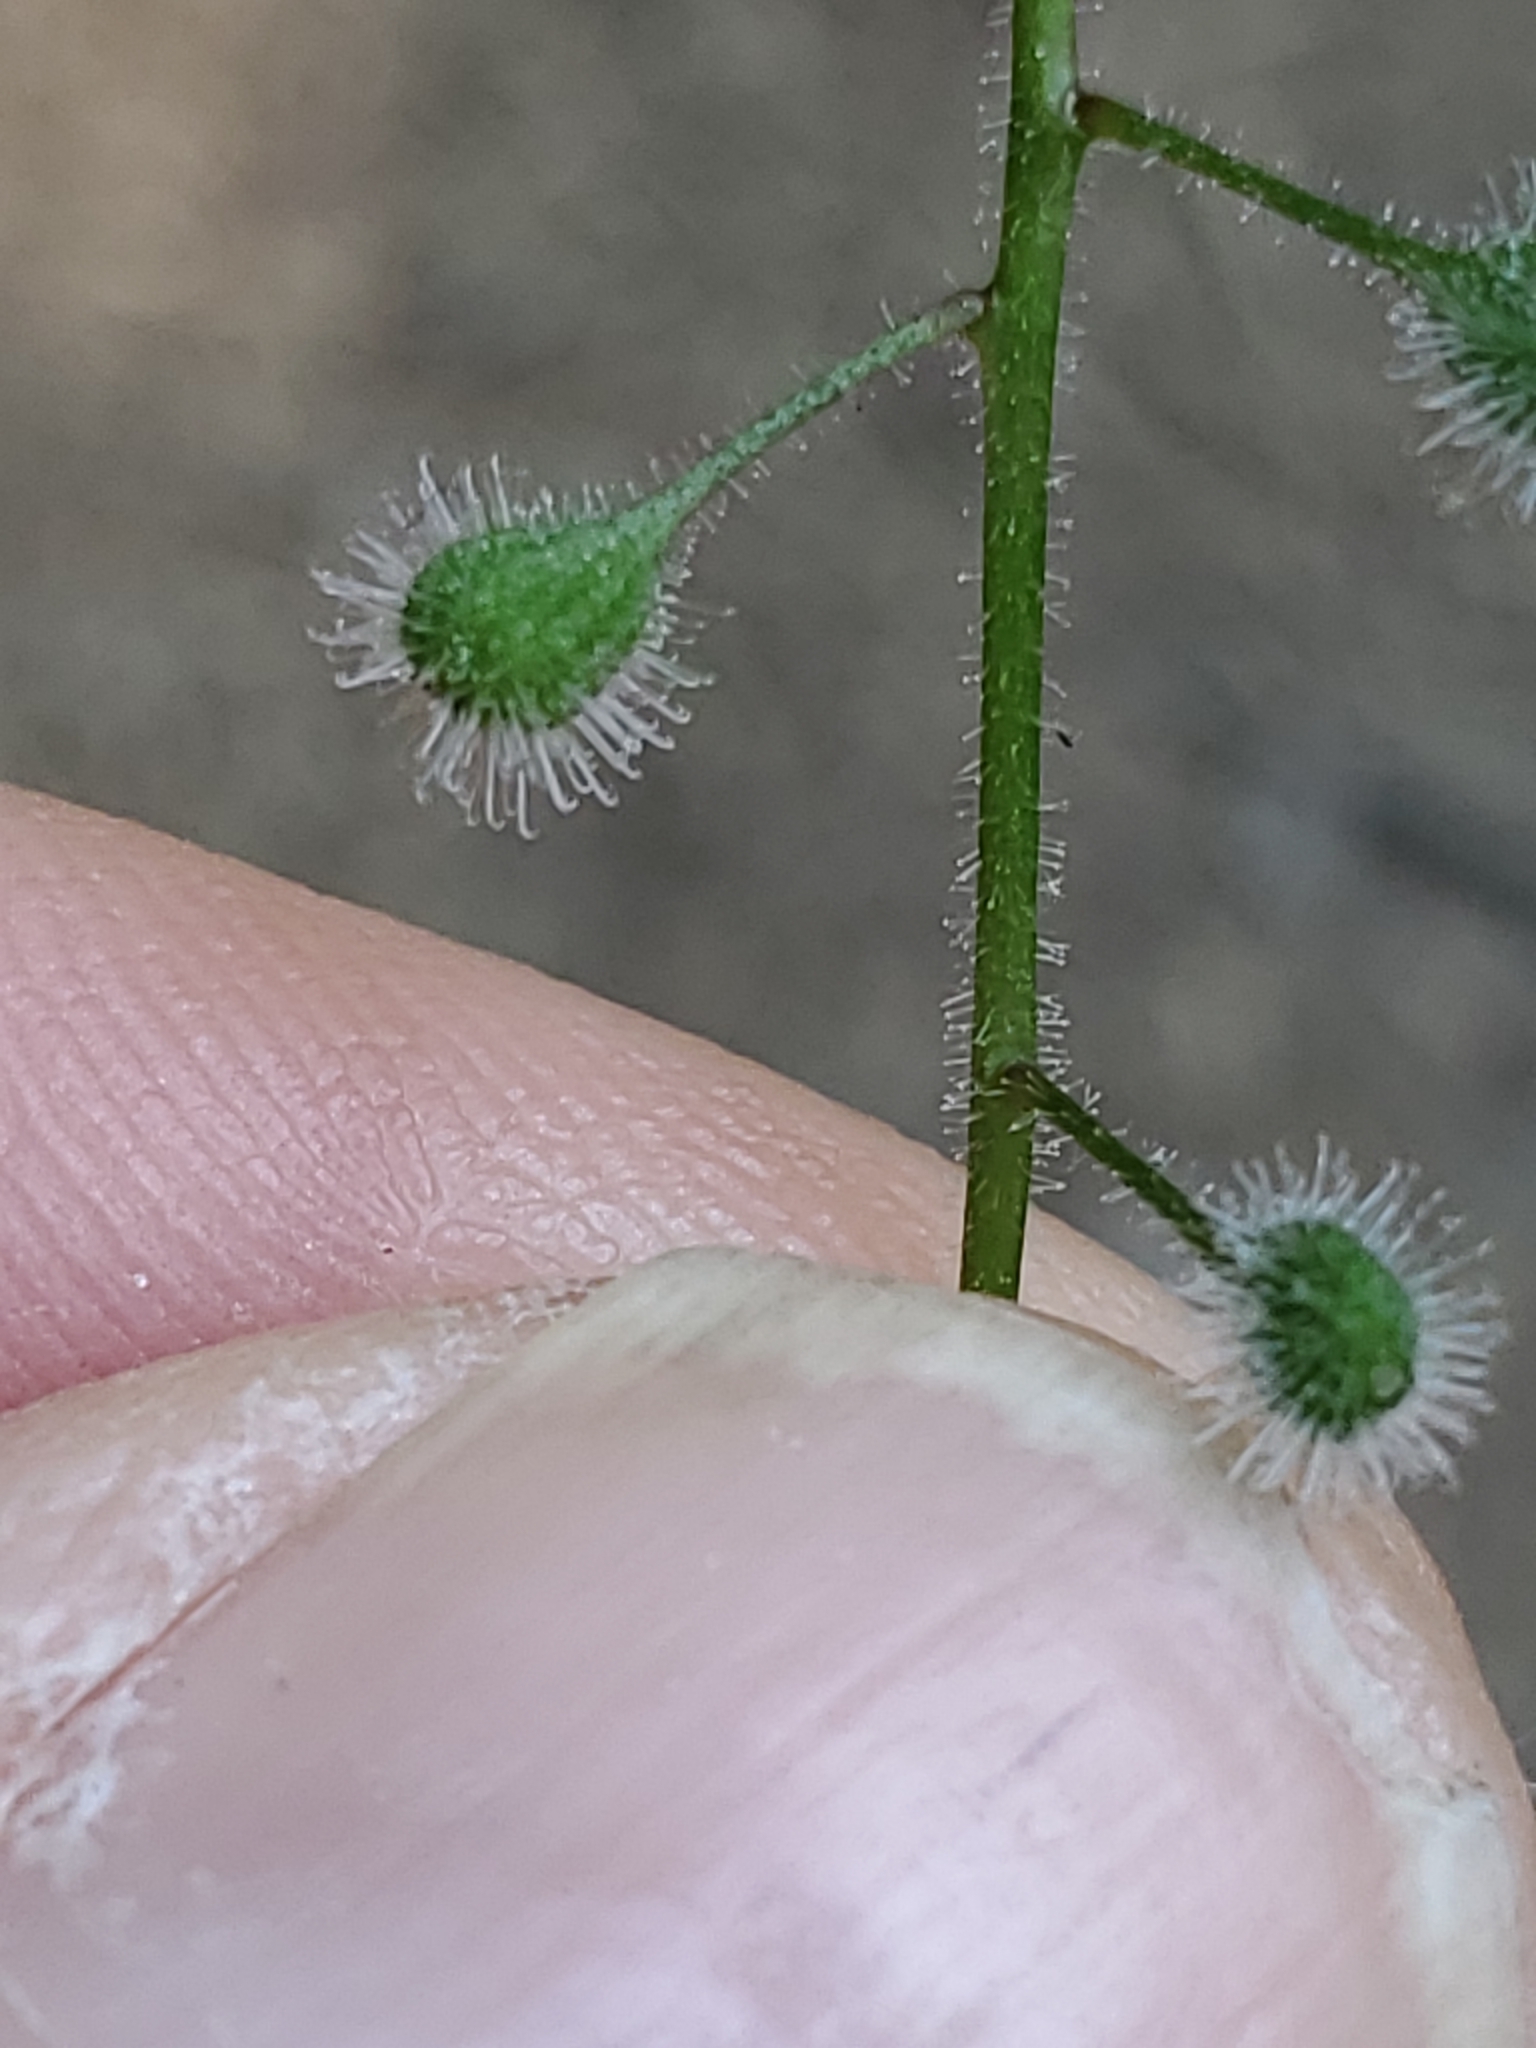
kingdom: Plantae
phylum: Tracheophyta
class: Magnoliopsida
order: Myrtales
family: Onagraceae
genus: Circaea
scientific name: Circaea canadensis
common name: Broad-leaved enchanter's nightshade
